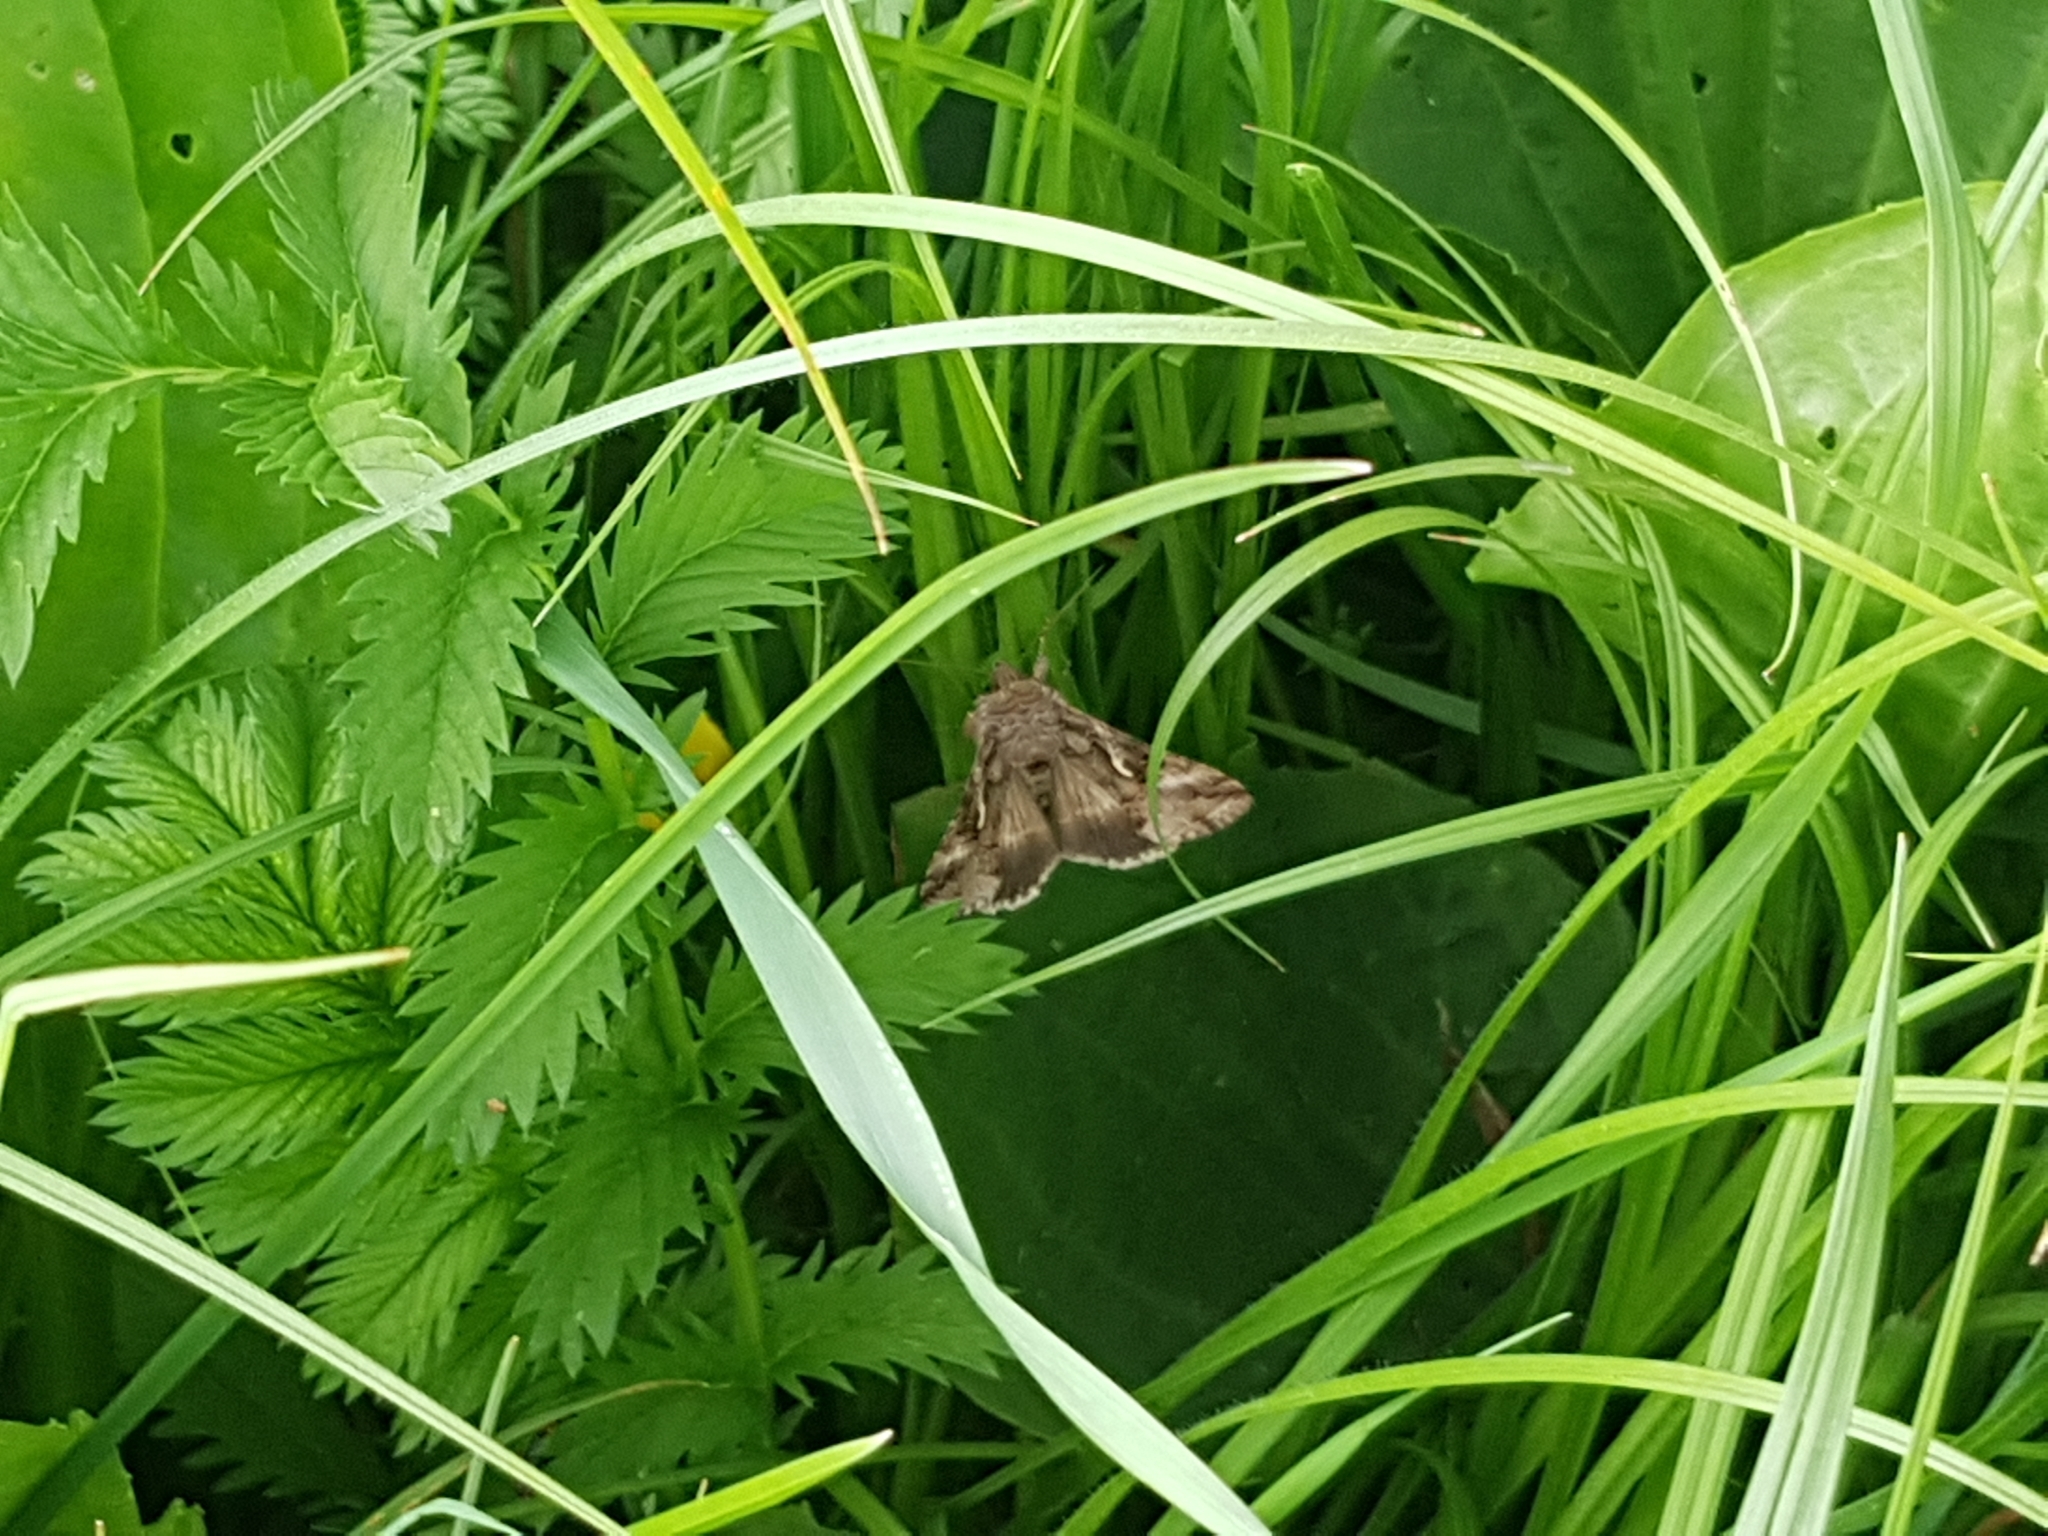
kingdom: Animalia
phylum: Arthropoda
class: Insecta
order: Lepidoptera
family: Noctuidae
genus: Autographa
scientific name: Autographa gamma
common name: Silver y
